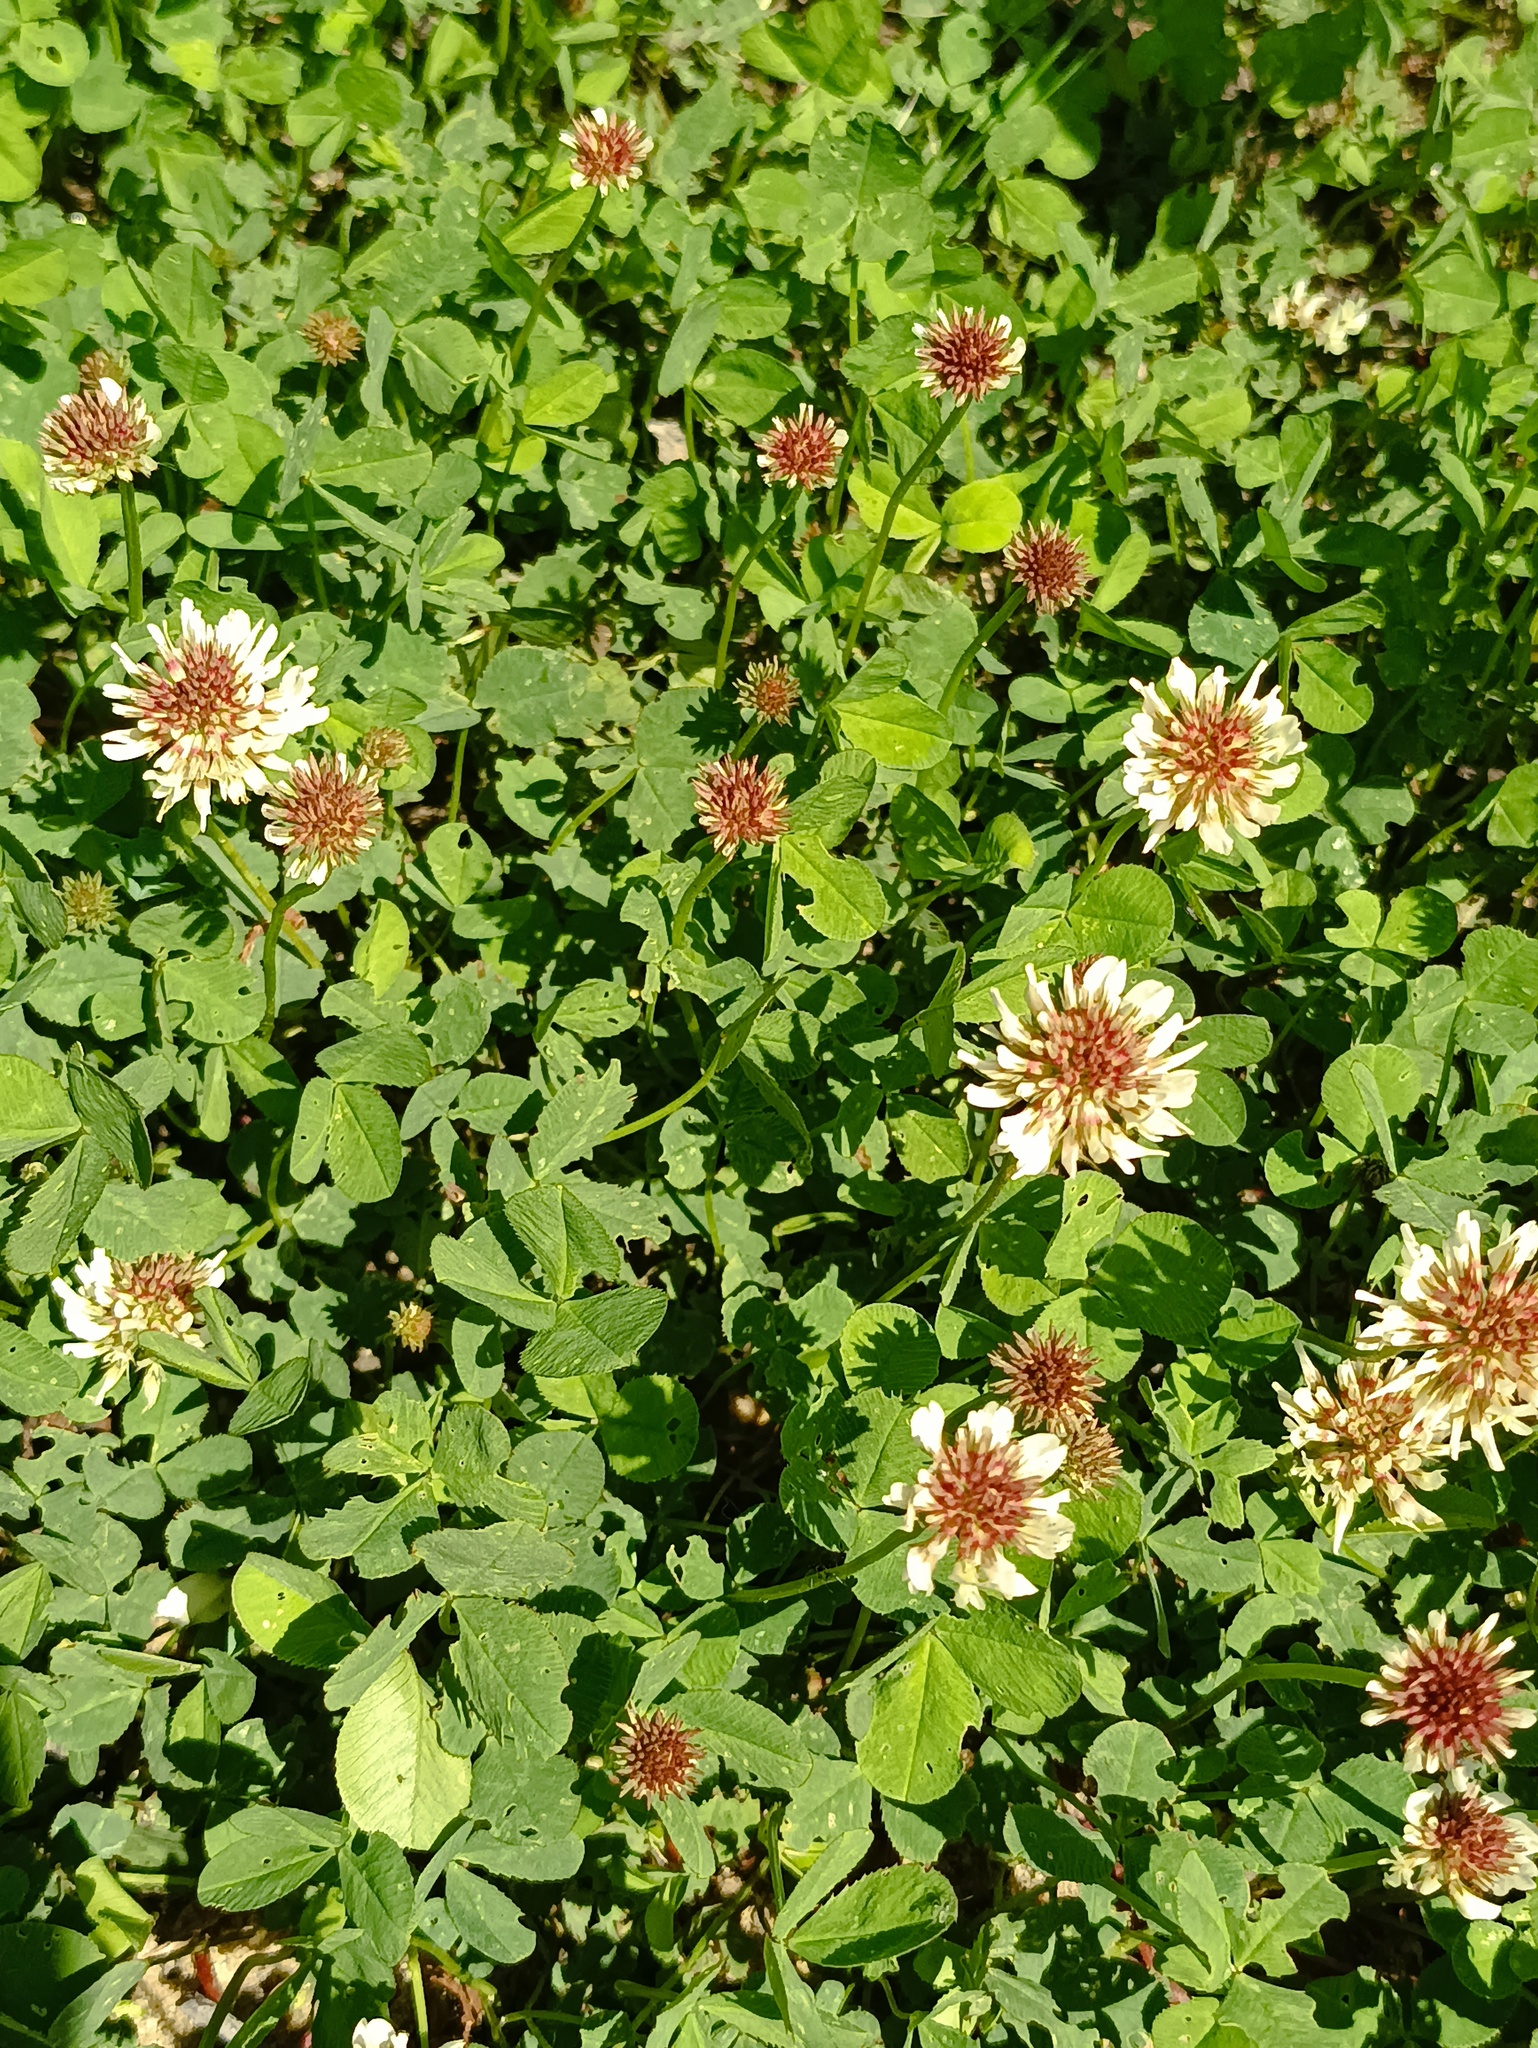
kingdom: Plantae
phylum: Tracheophyta
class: Magnoliopsida
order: Fabales
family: Fabaceae
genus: Trifolium
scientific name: Trifolium repens
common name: White clover
